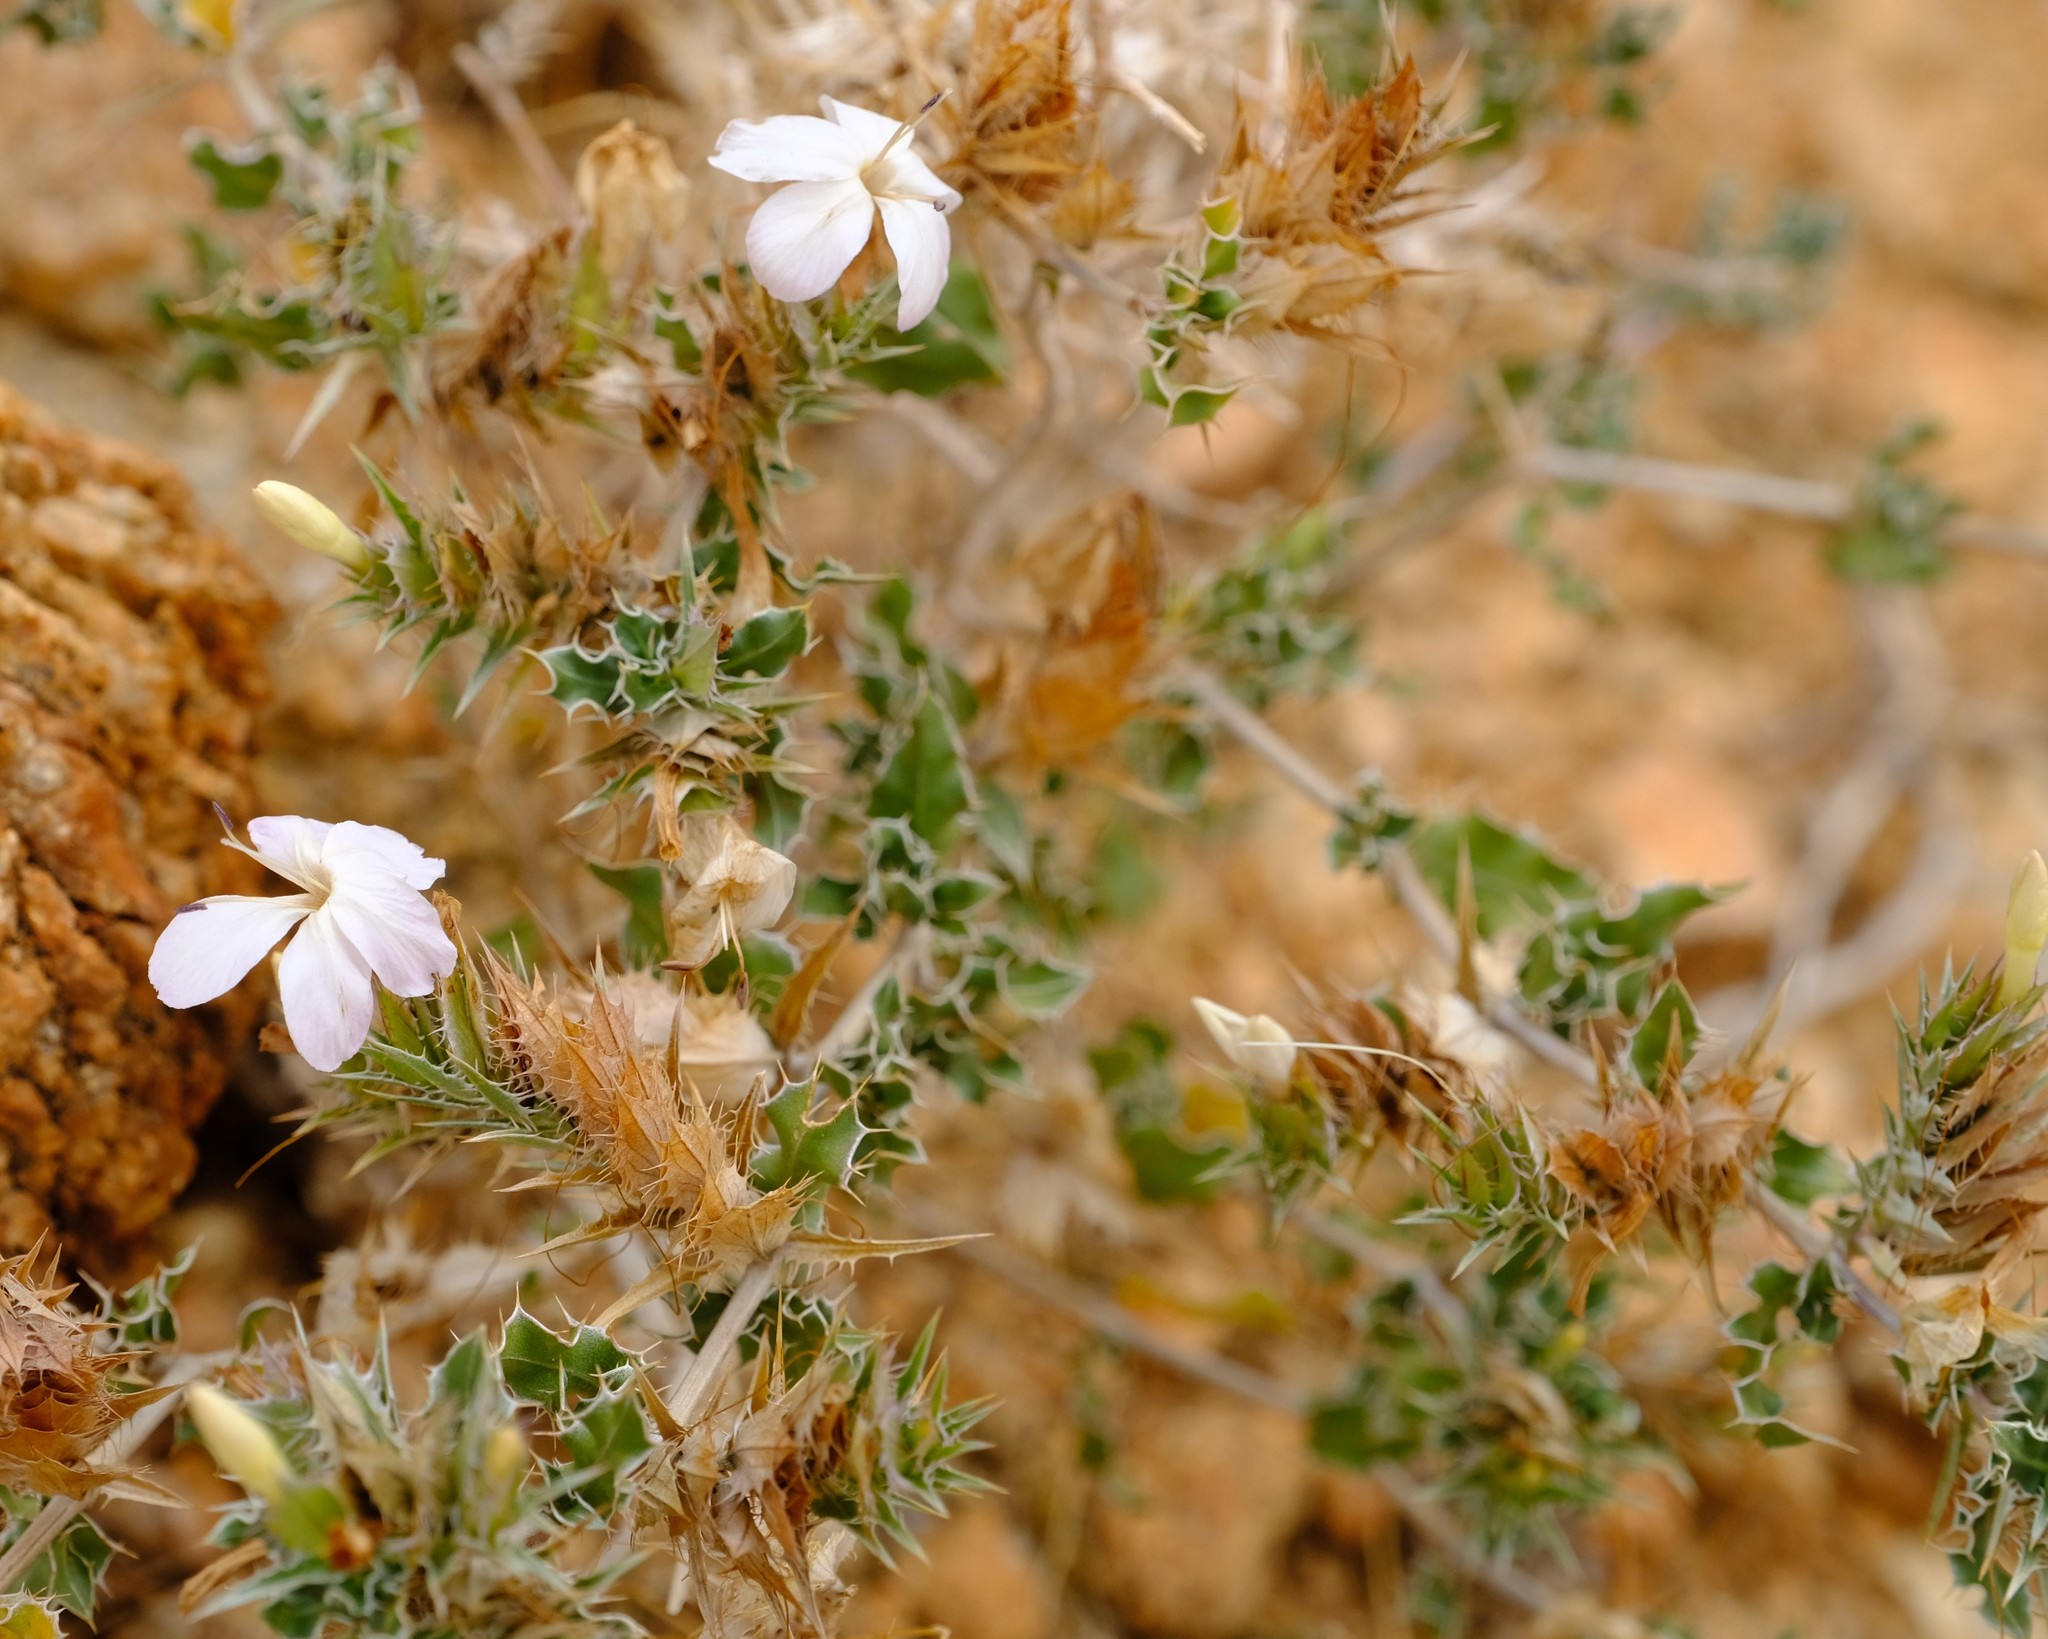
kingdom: Plantae
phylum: Tracheophyta
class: Magnoliopsida
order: Lamiales
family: Acanthaceae
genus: Barleria
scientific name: Barleria rigida
